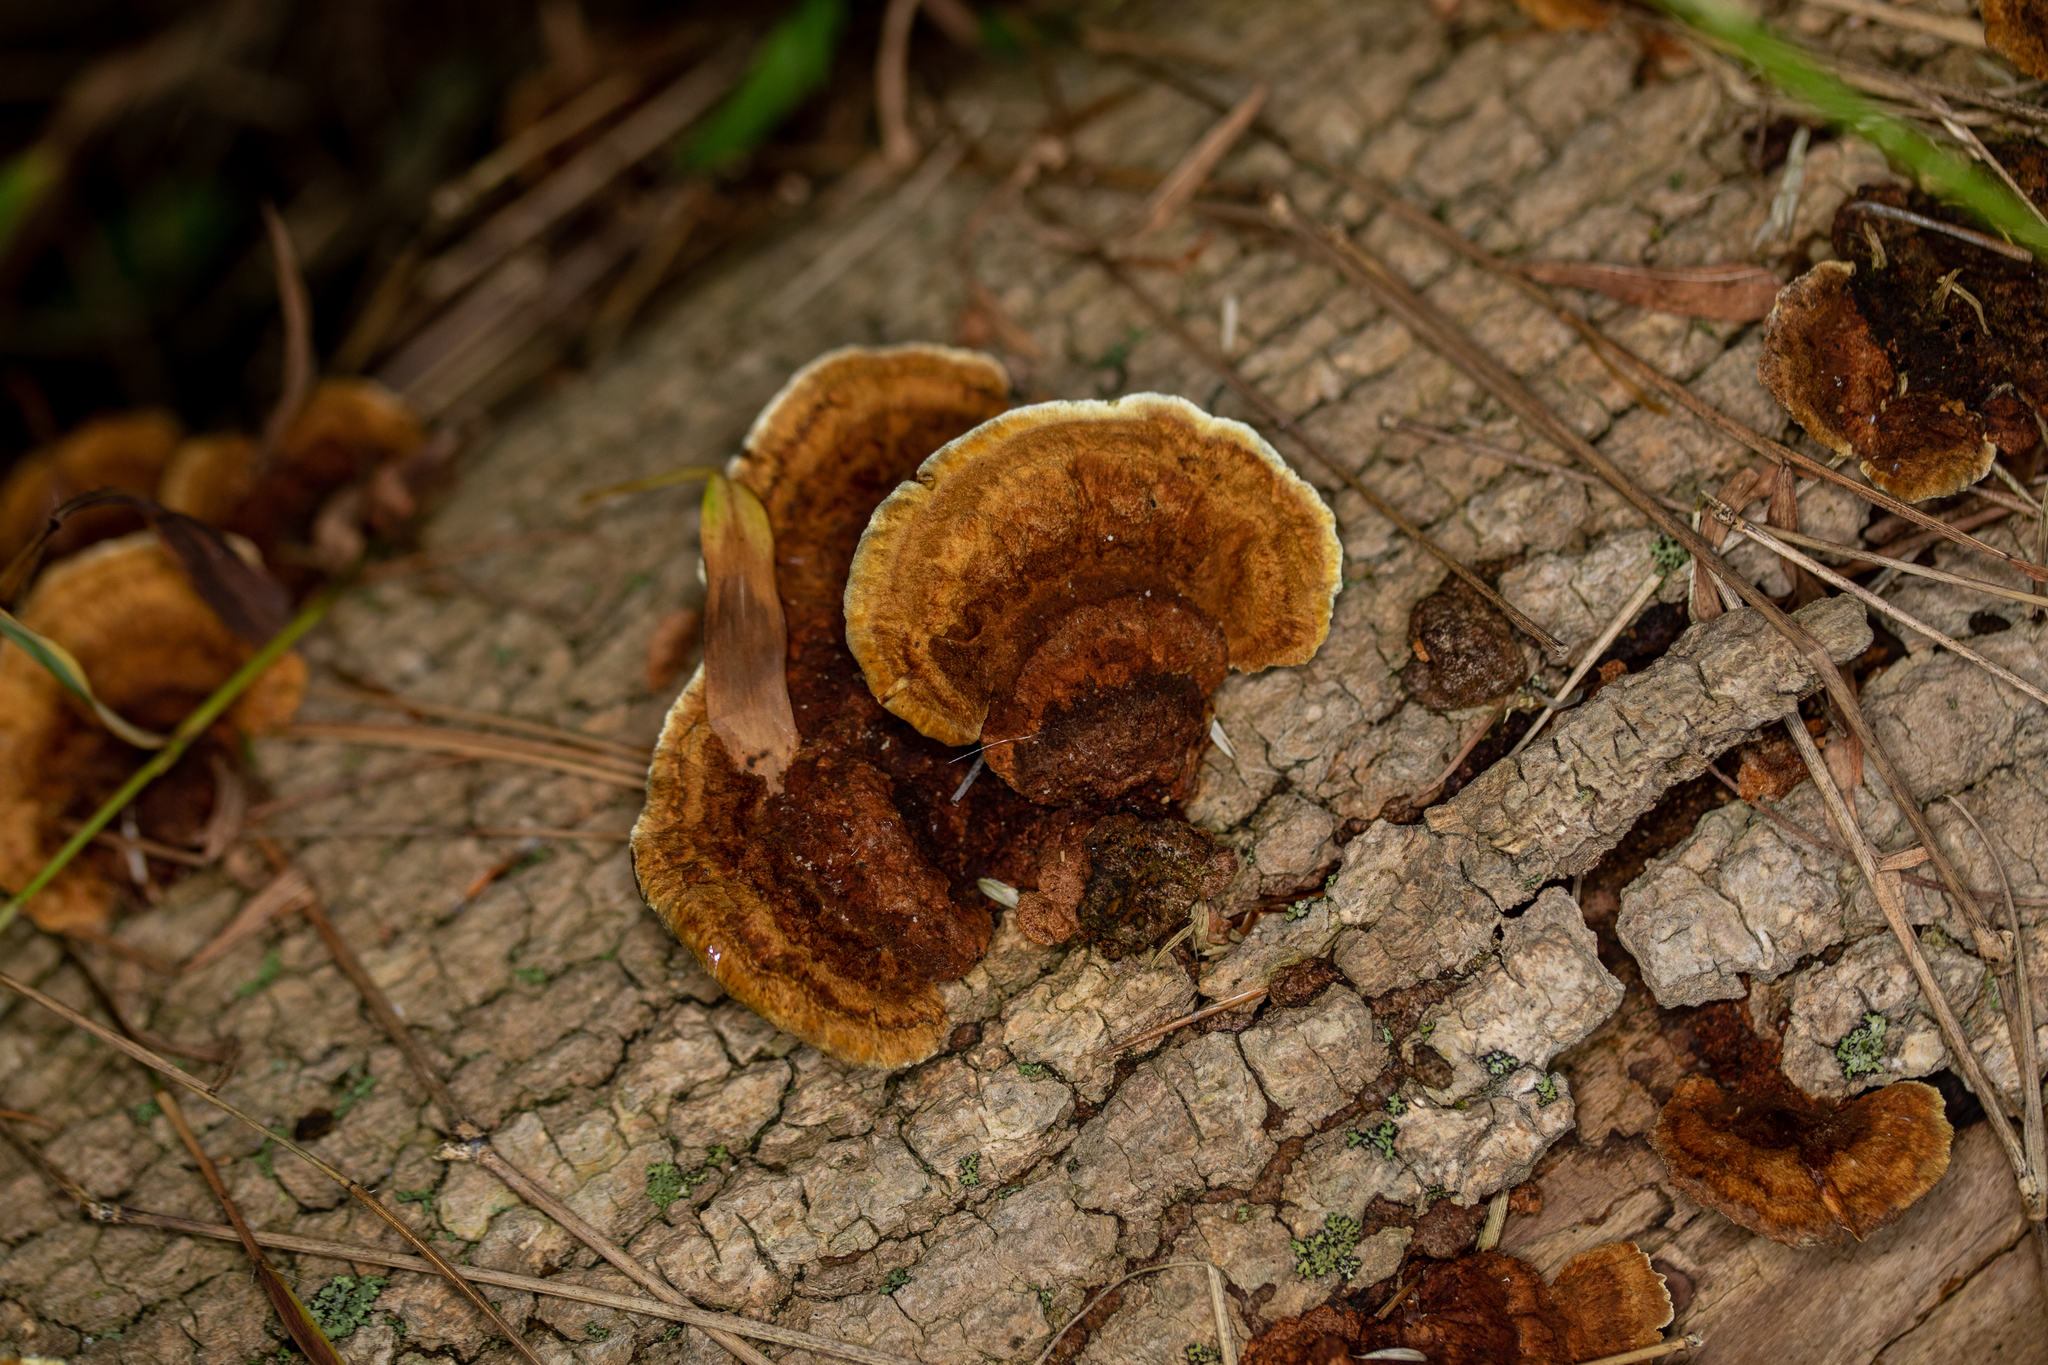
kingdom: Fungi
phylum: Basidiomycota
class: Agaricomycetes
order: Hymenochaetales
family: Hymenochaetaceae
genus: Phellinus
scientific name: Phellinus gilvus
